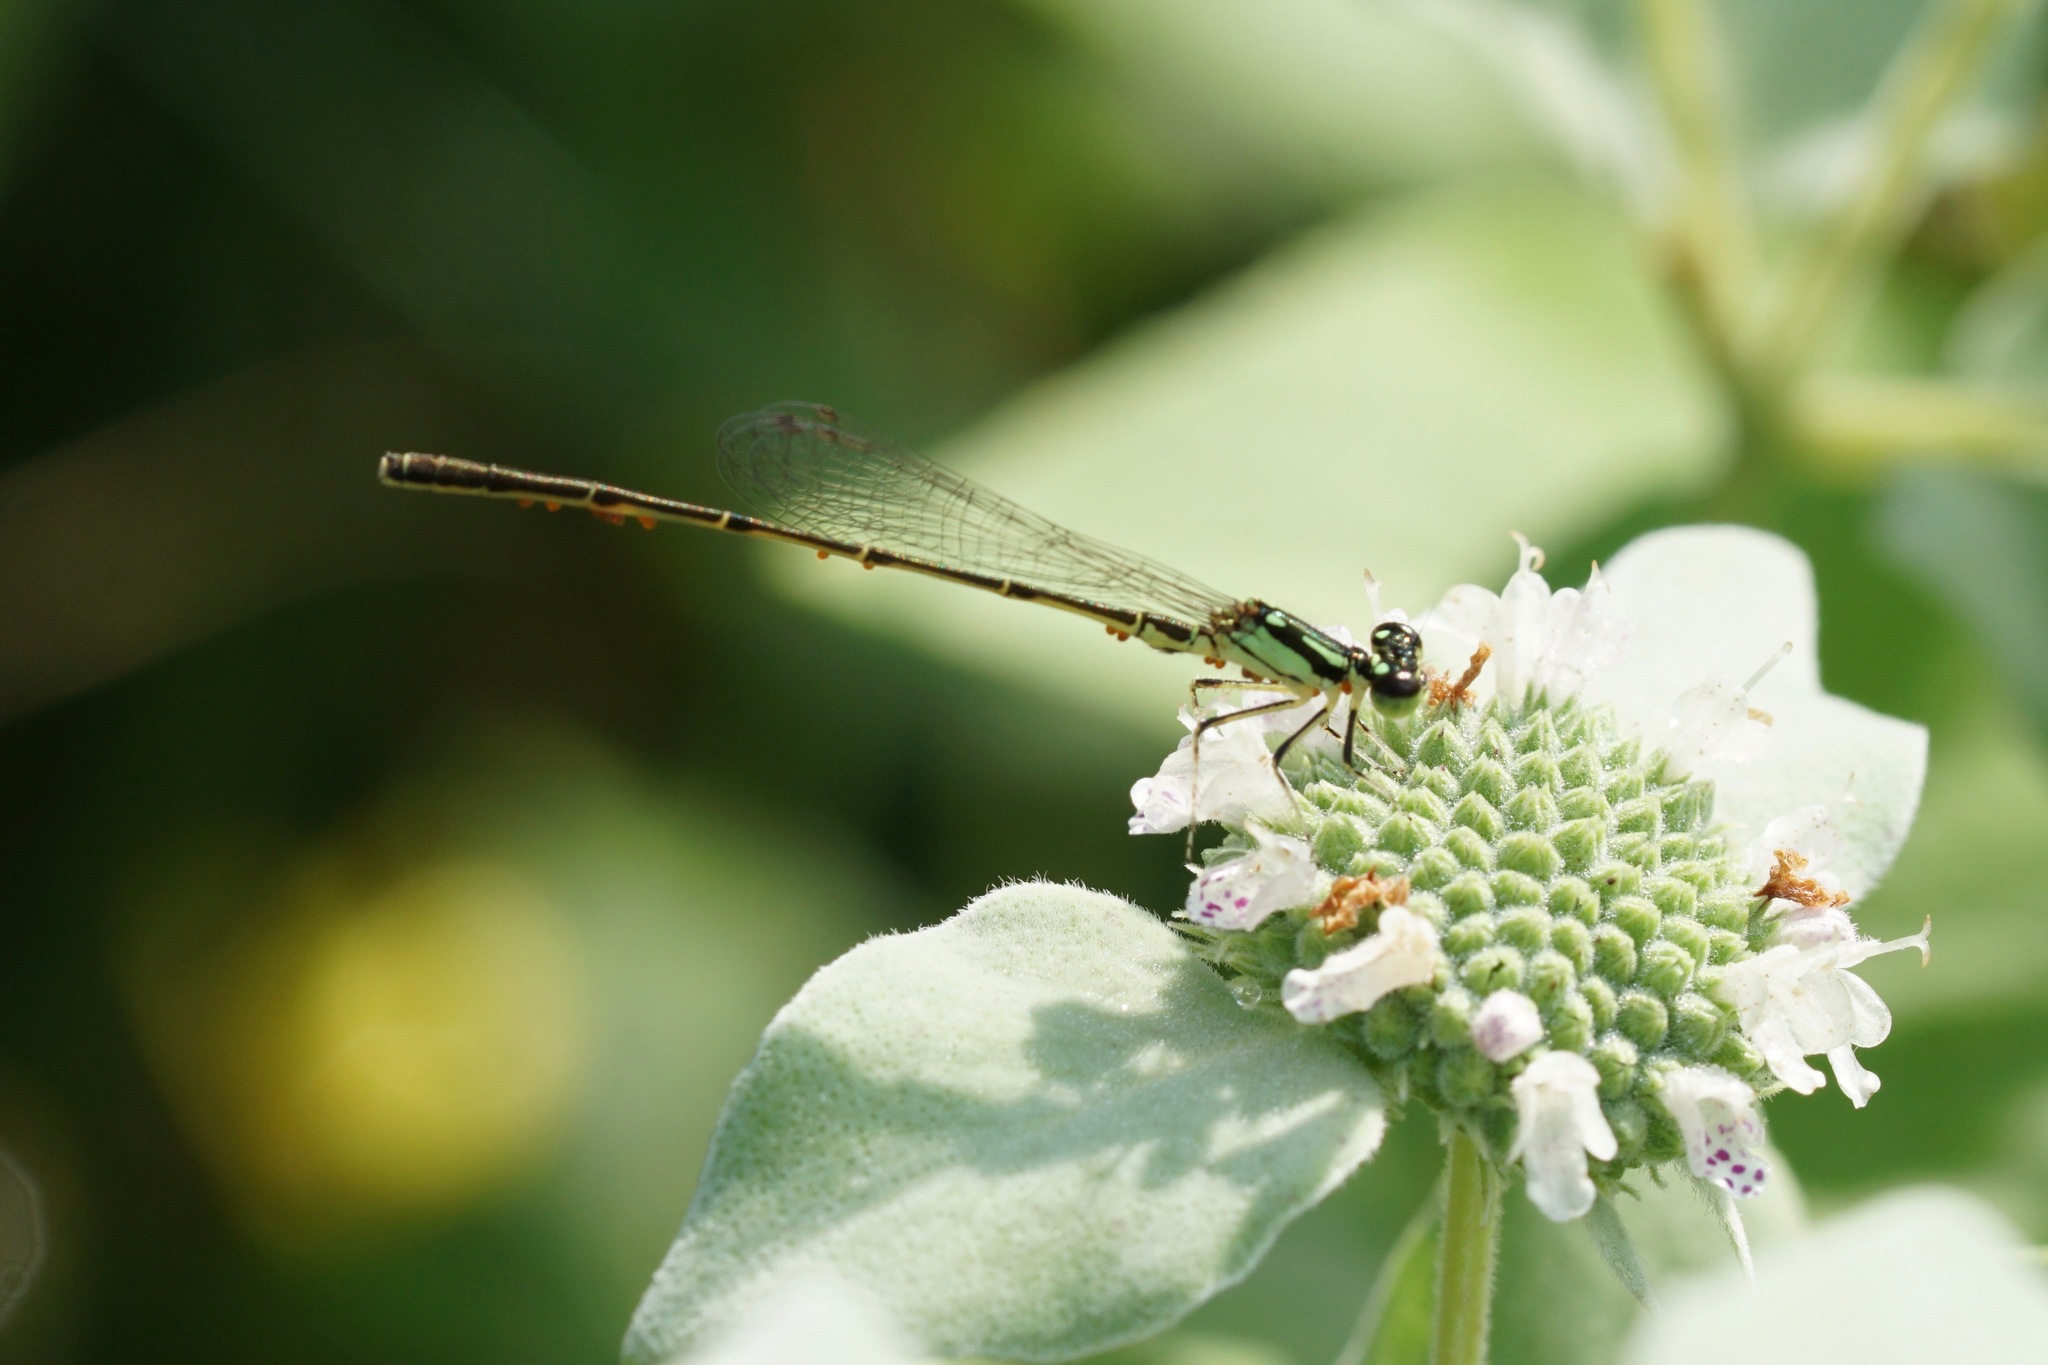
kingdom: Animalia
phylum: Arthropoda
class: Insecta
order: Odonata
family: Coenagrionidae
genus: Ischnura
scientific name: Ischnura posita
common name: Fragile forktail
